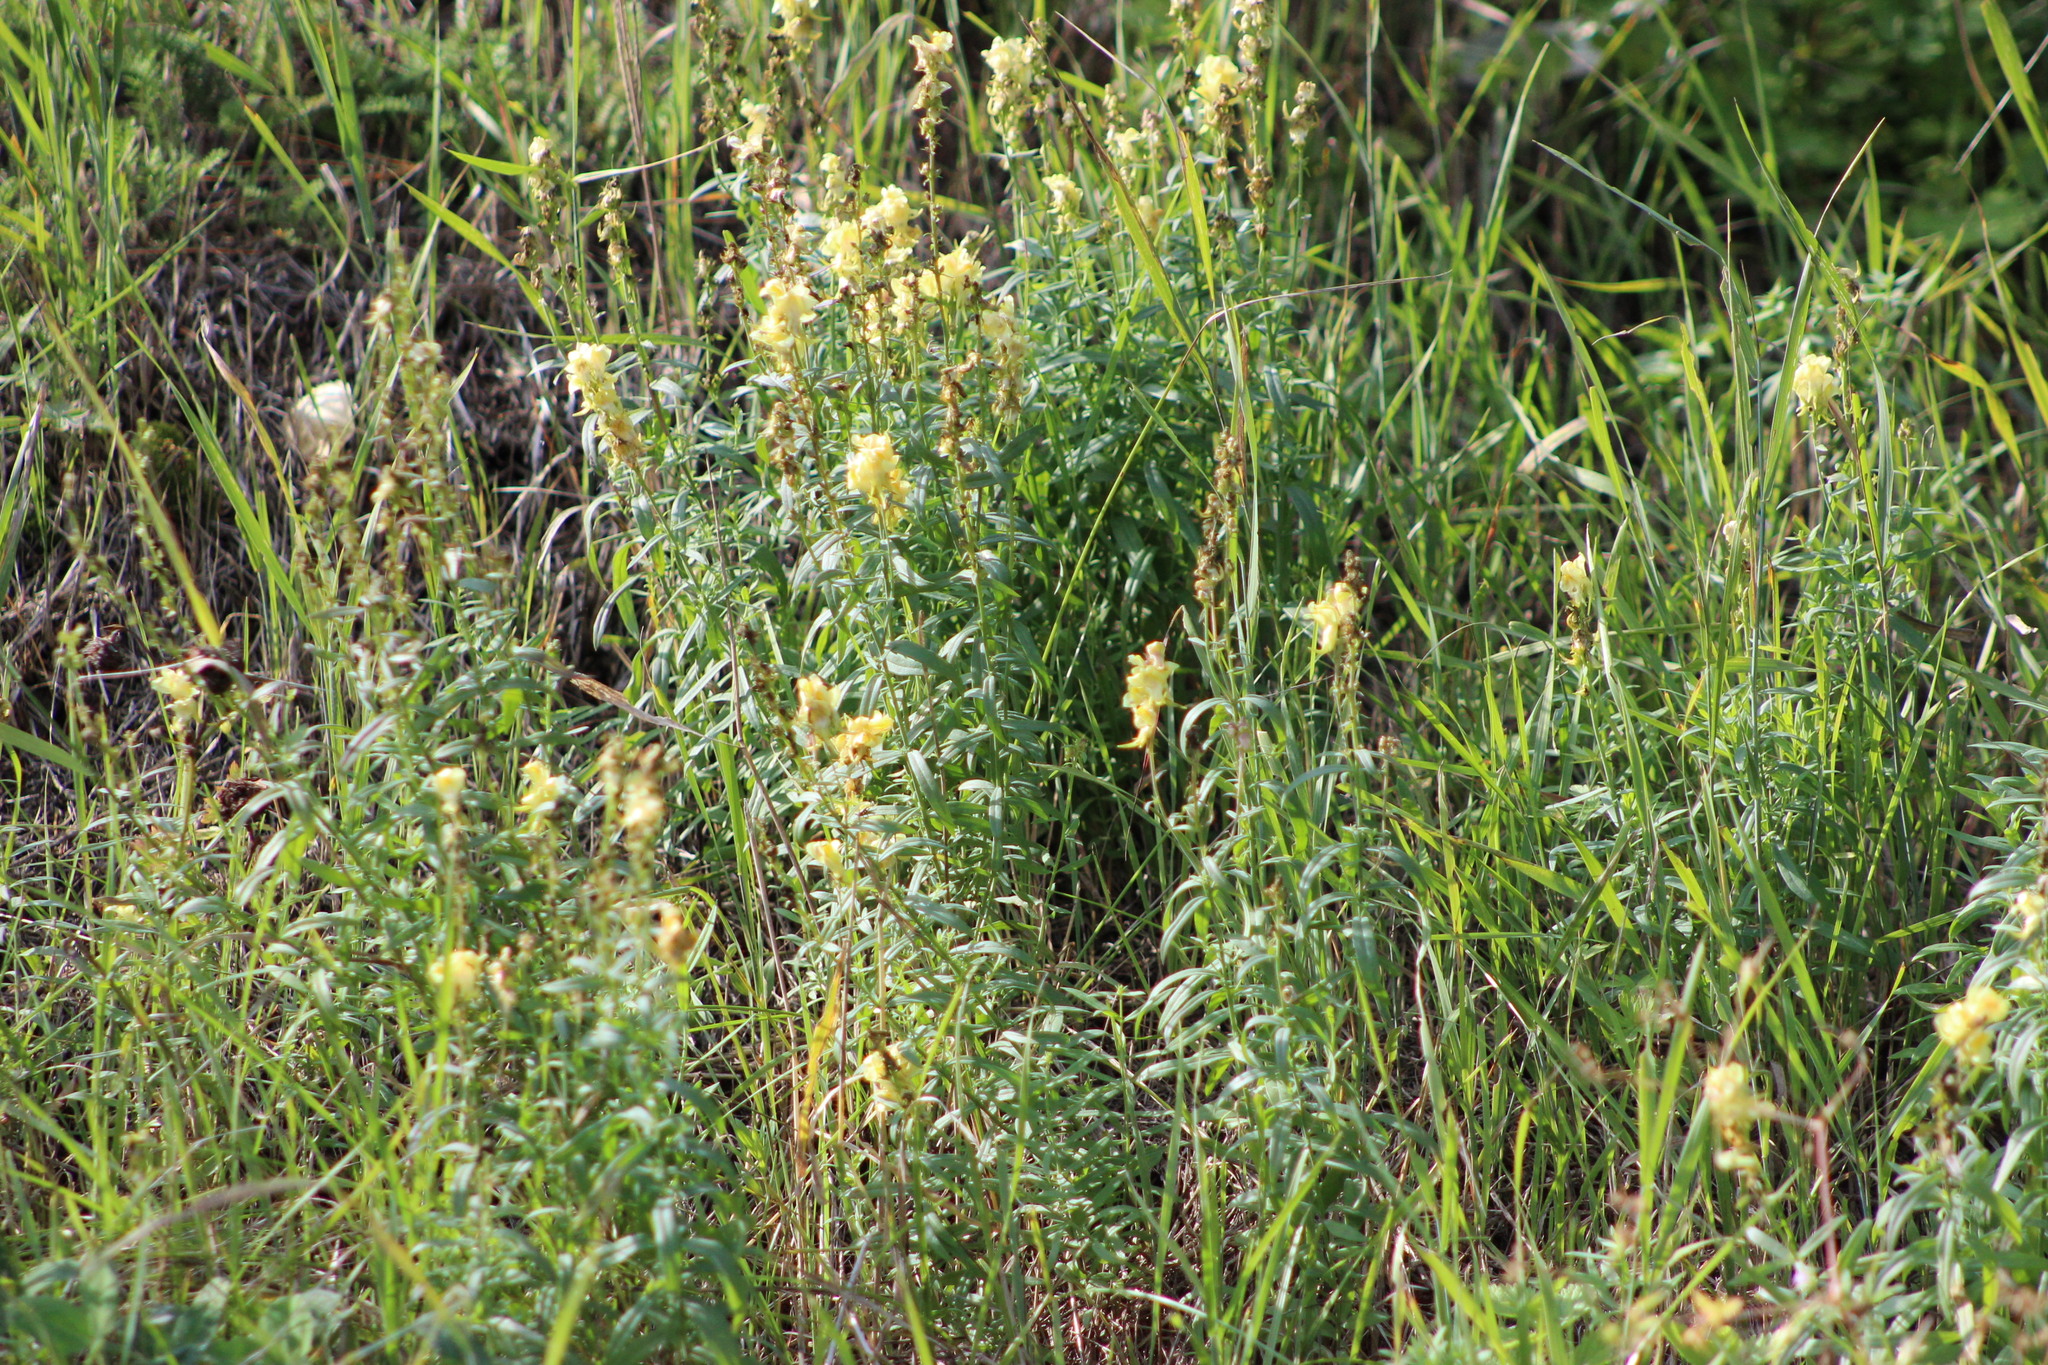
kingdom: Plantae
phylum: Tracheophyta
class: Magnoliopsida
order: Lamiales
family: Plantaginaceae
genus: Linaria
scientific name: Linaria vulgaris
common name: Butter and eggs
